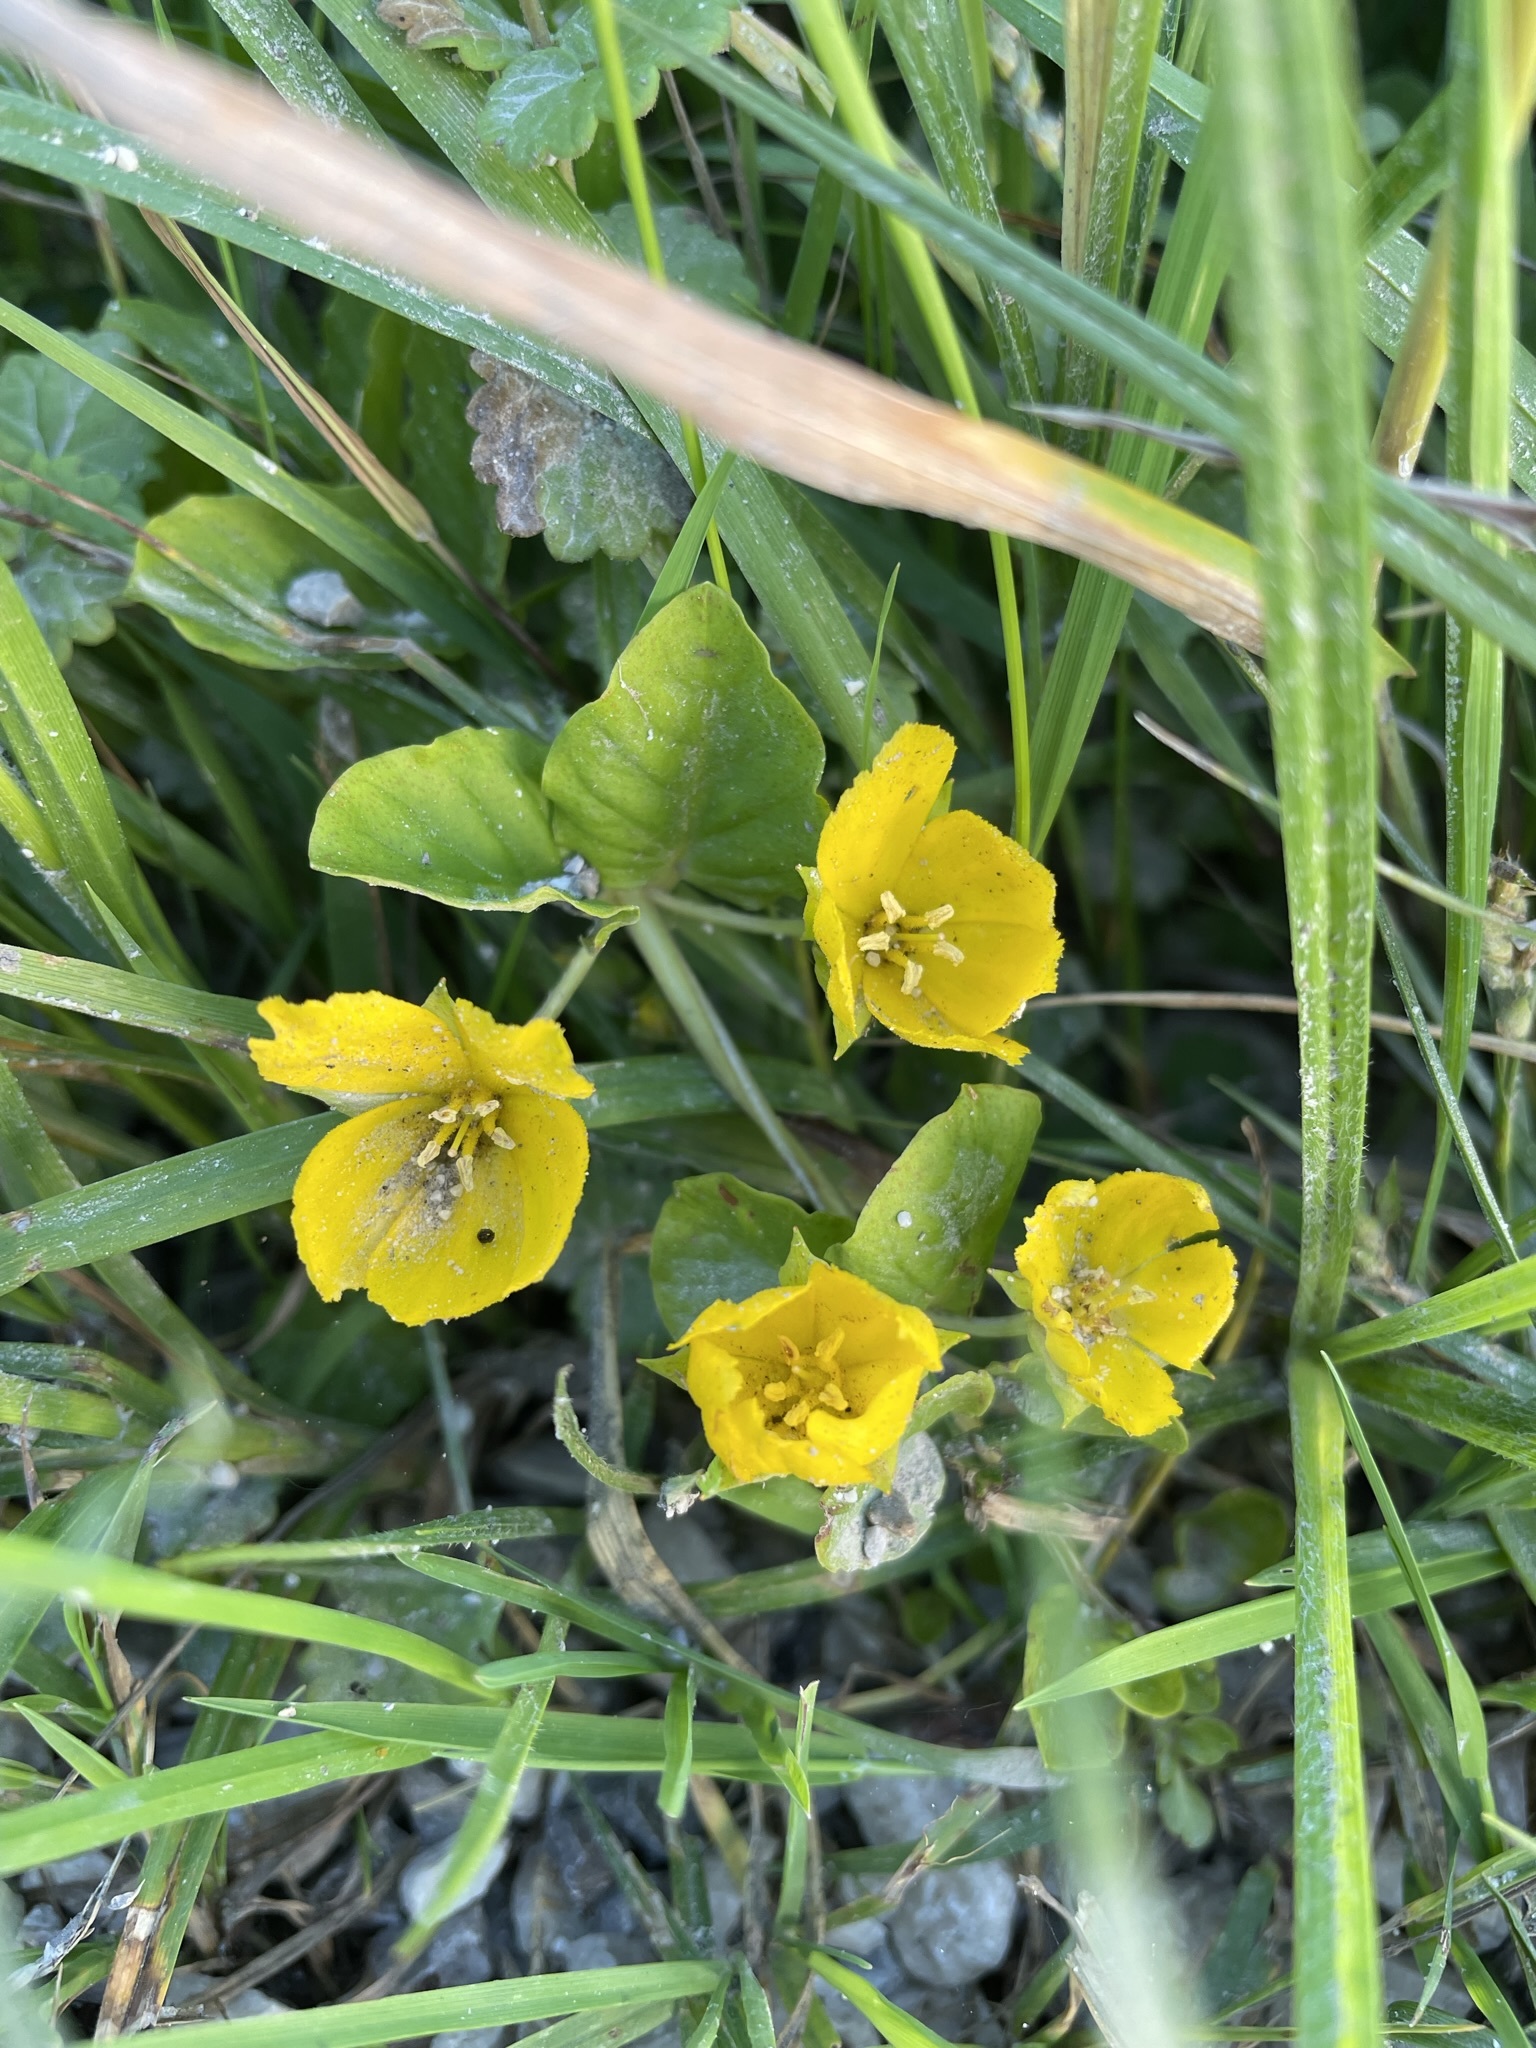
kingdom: Plantae
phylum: Tracheophyta
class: Magnoliopsida
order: Ericales
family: Primulaceae
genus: Lysimachia
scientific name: Lysimachia nummularia
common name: Moneywort
